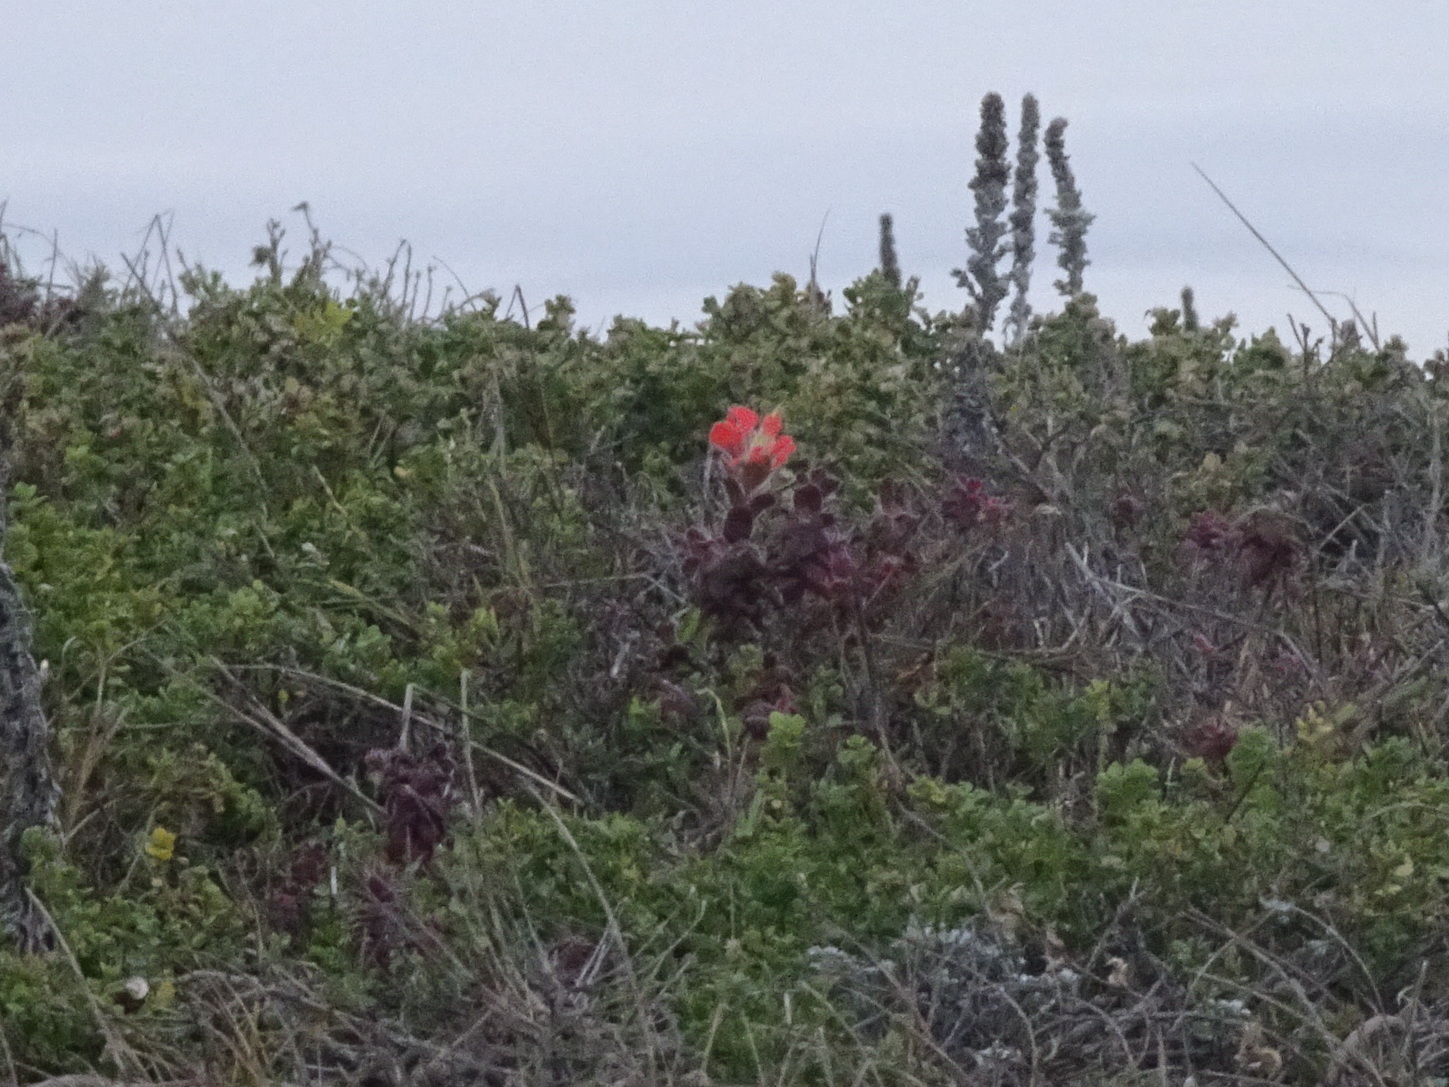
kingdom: Plantae
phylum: Tracheophyta
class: Magnoliopsida
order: Lamiales
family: Orobanchaceae
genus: Castilleja
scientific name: Castilleja latifolia
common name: Monterey indian paintbrush
